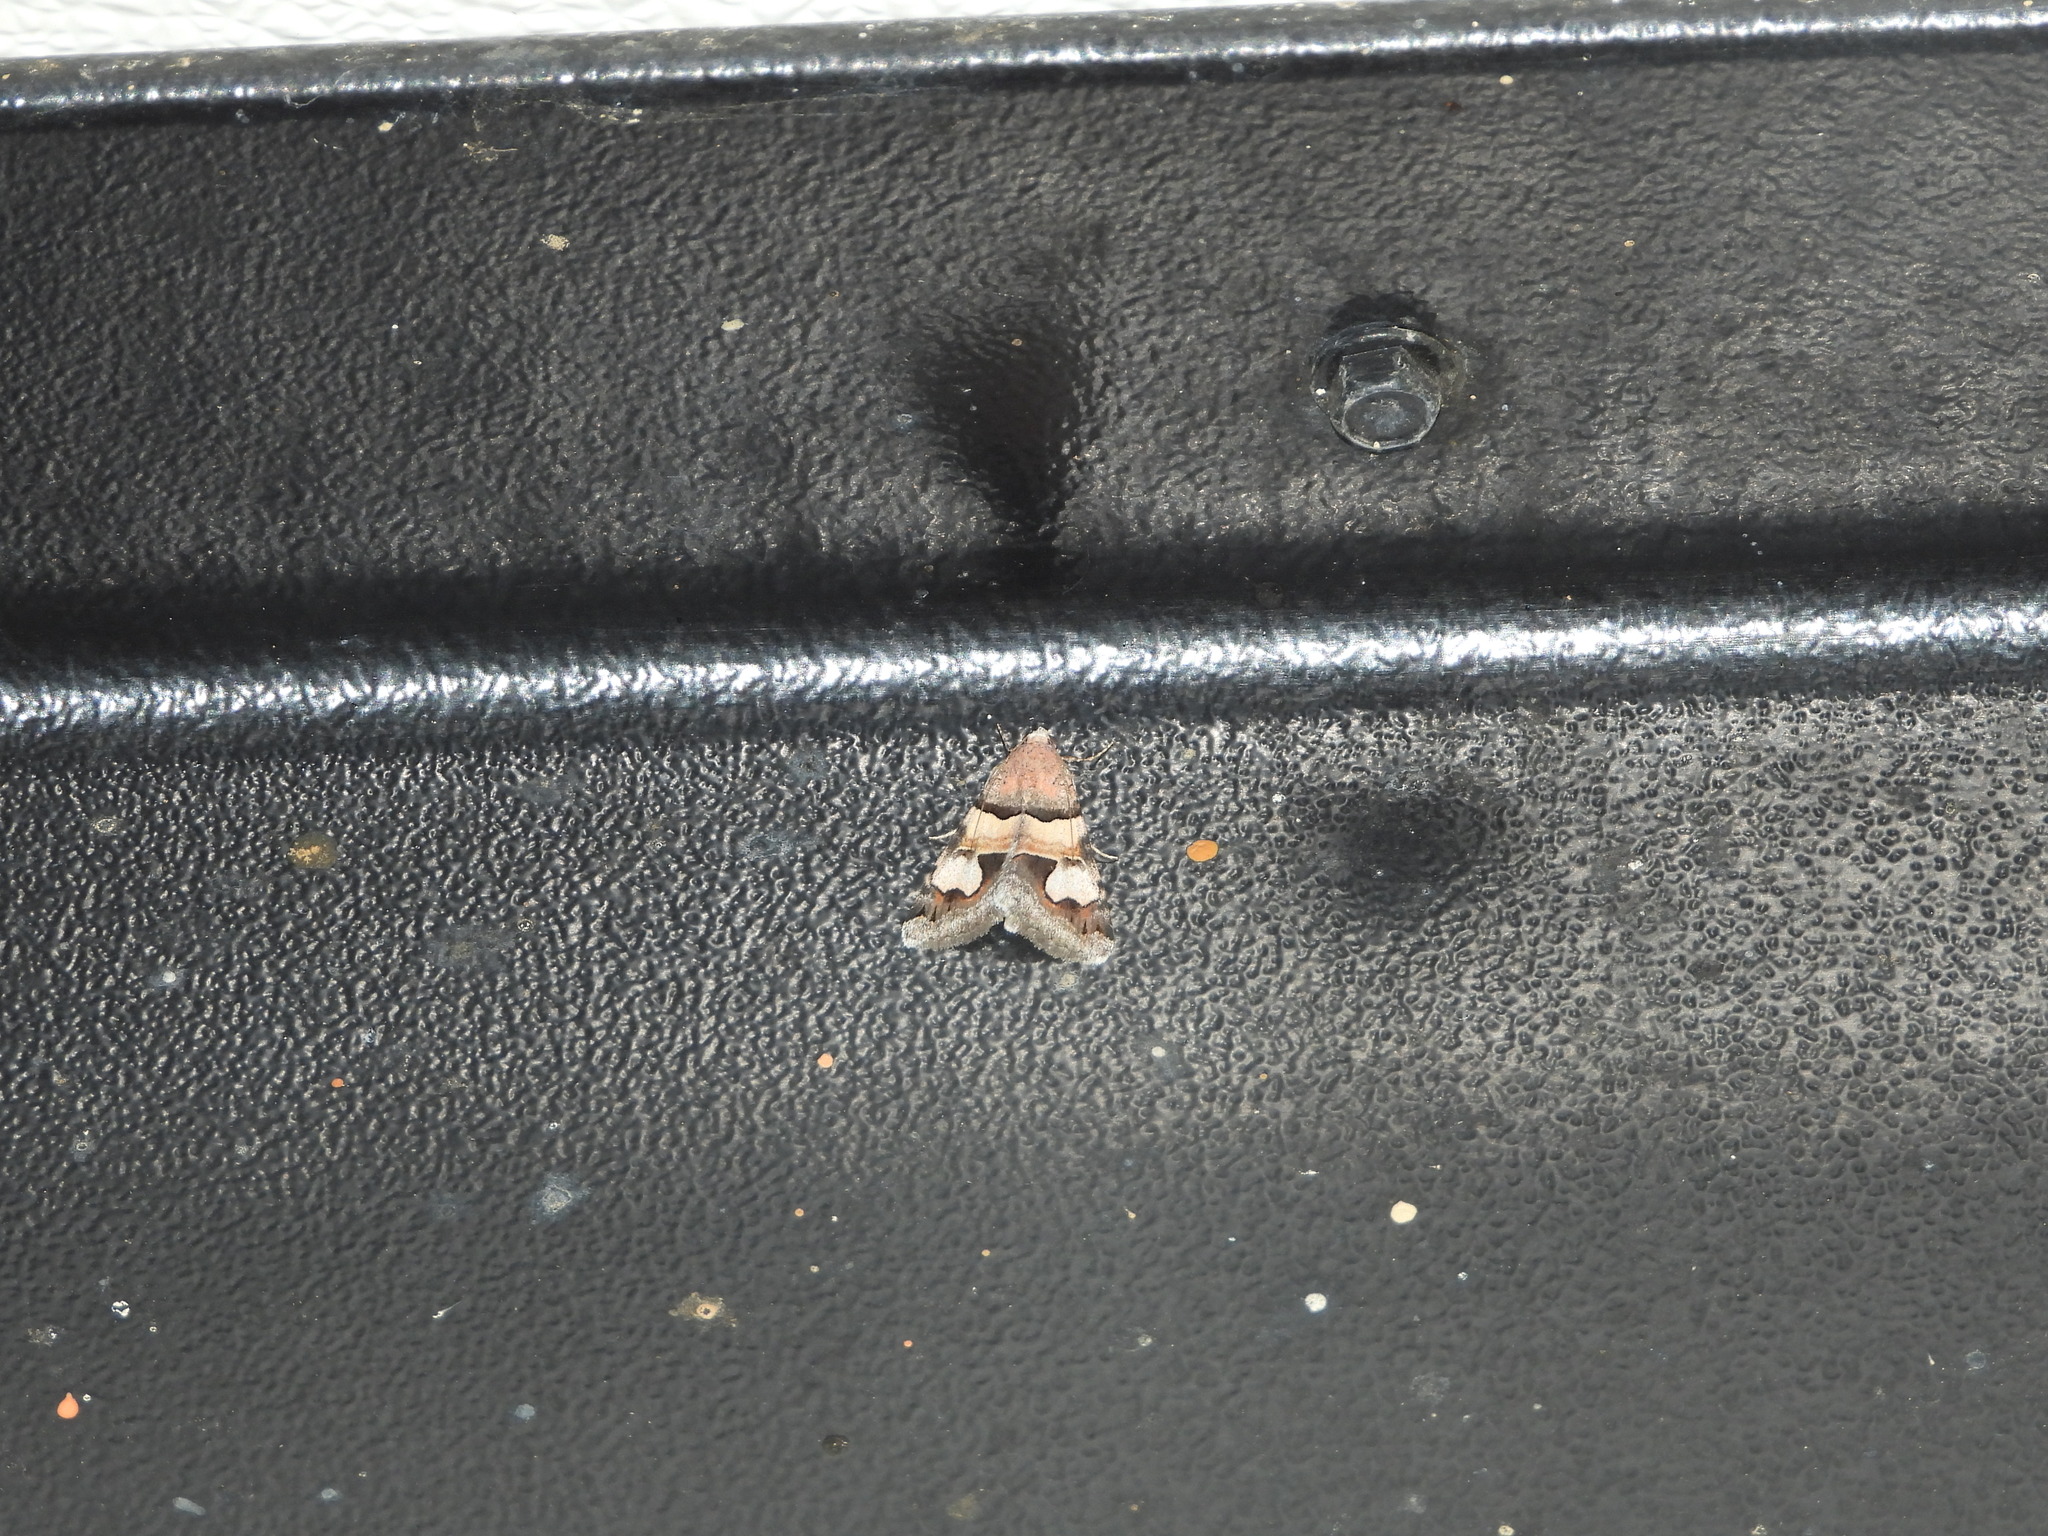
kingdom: Animalia
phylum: Arthropoda
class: Insecta
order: Lepidoptera
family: Erebidae
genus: Drasteria
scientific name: Drasteria pallescens
